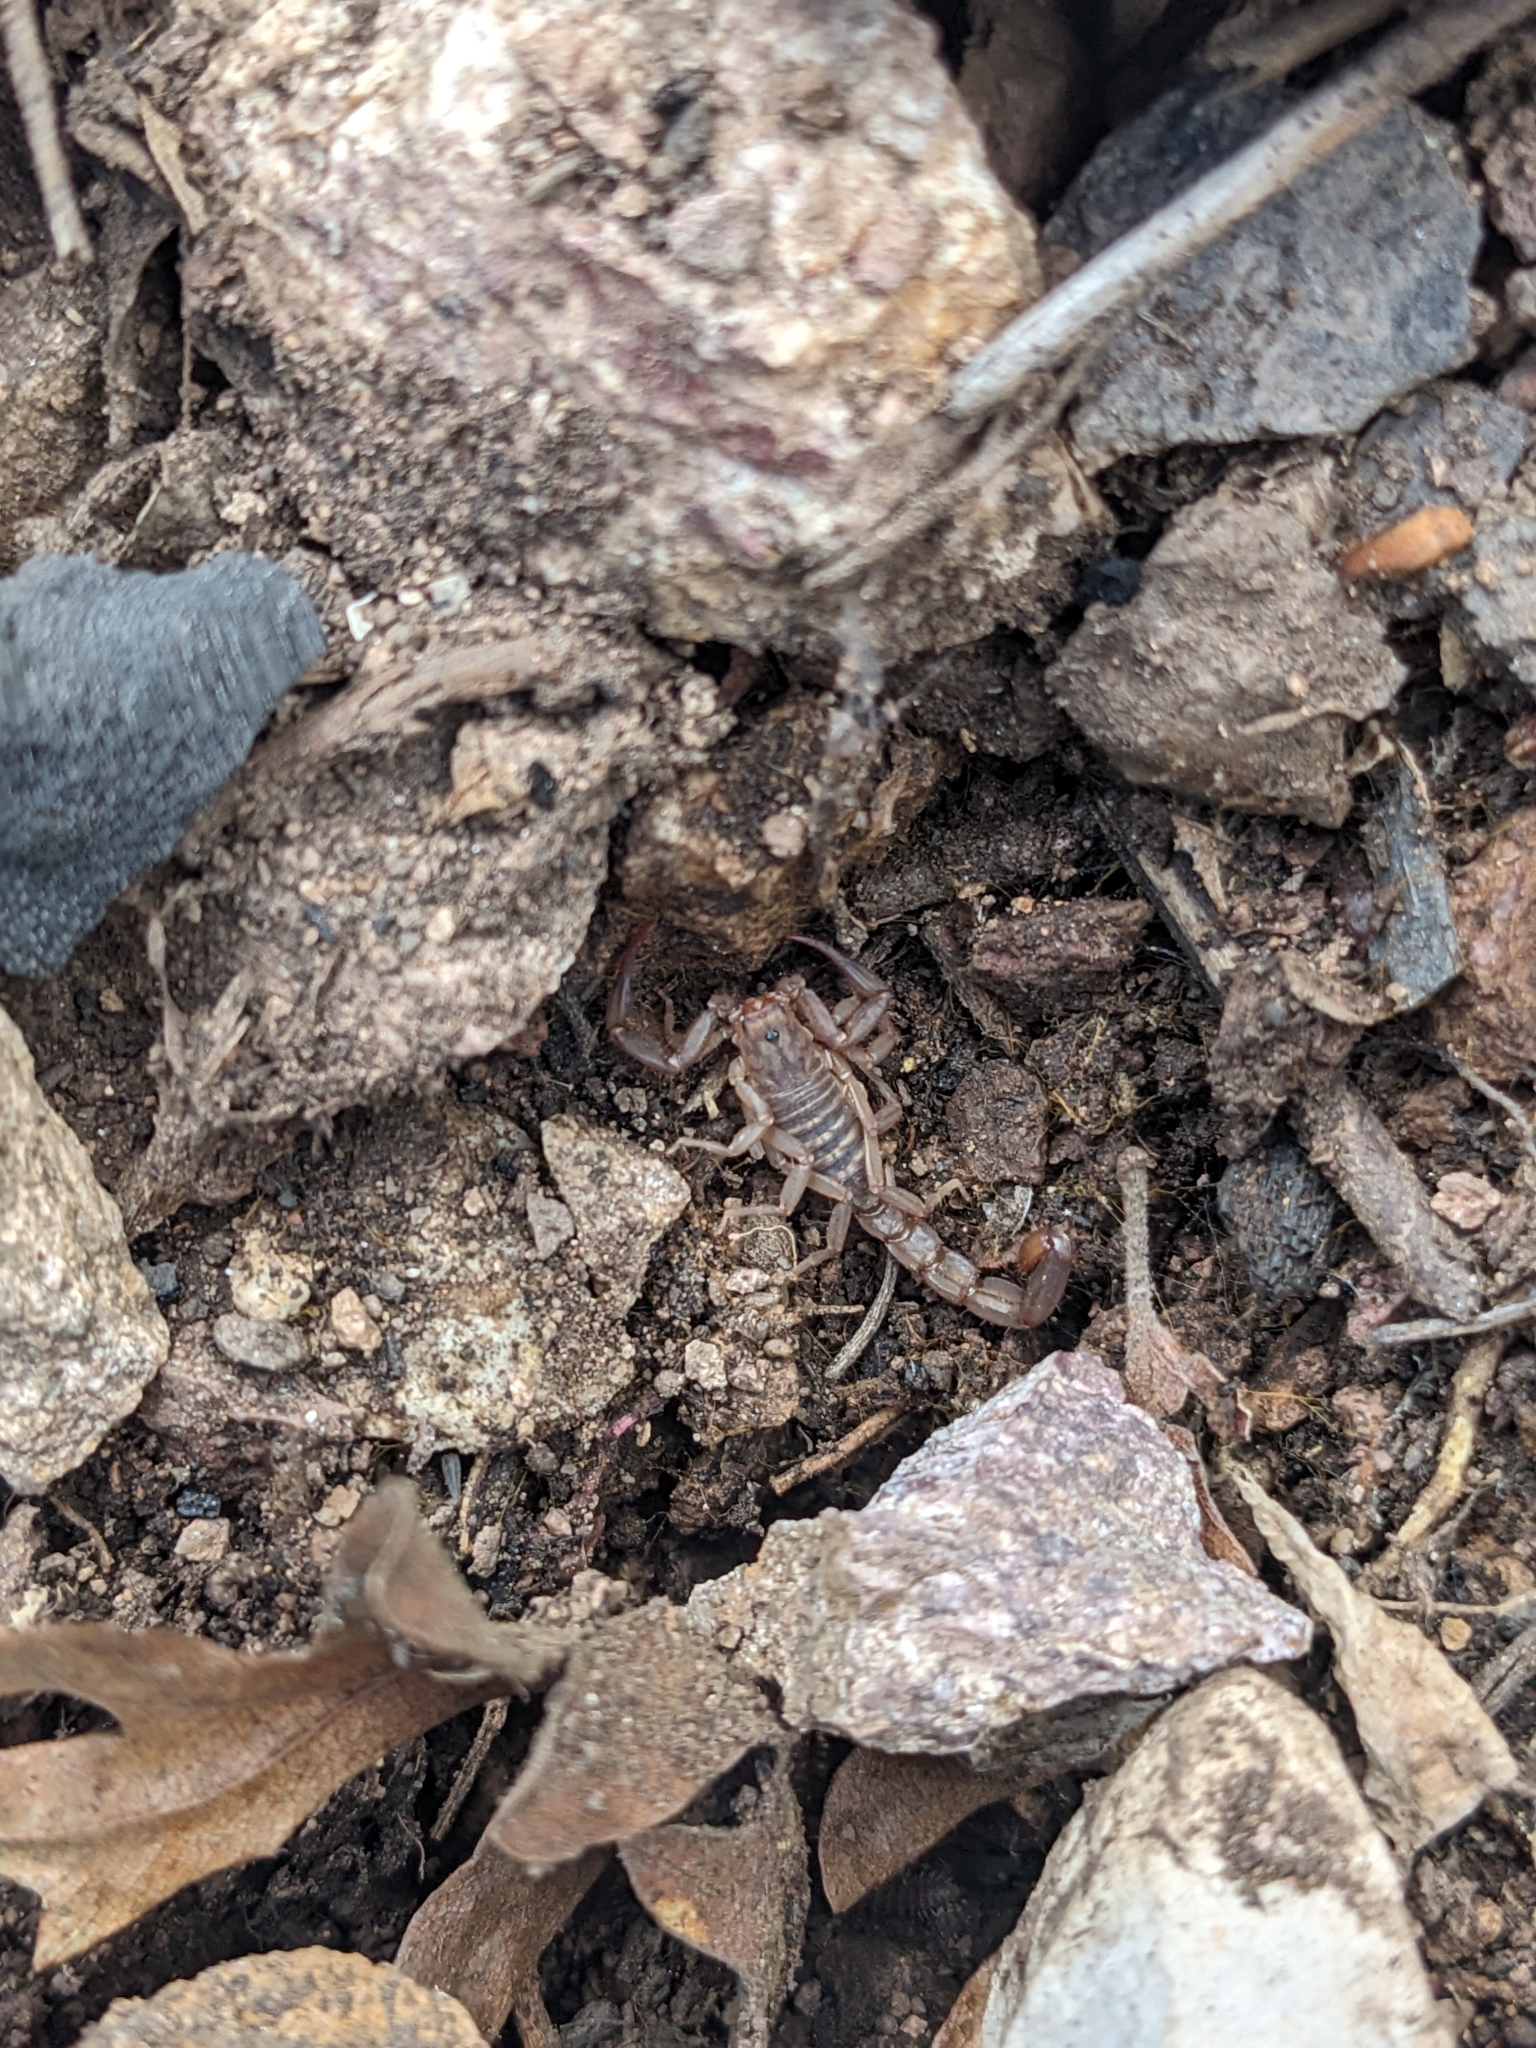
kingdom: Animalia
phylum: Arthropoda
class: Arachnida
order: Scorpiones
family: Vaejovidae
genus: Vaejovis
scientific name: Vaejovis vorhiesi
